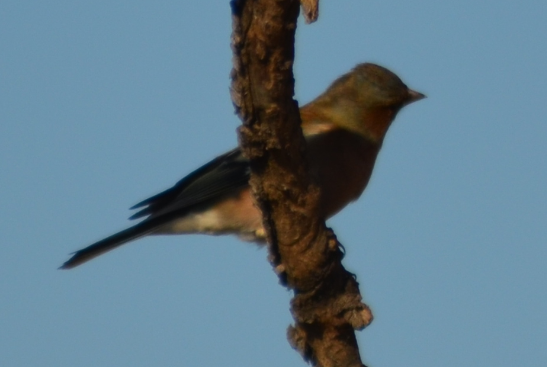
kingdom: Animalia
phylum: Chordata
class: Aves
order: Passeriformes
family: Fringillidae
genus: Fringilla
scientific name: Fringilla coelebs
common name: Common chaffinch
